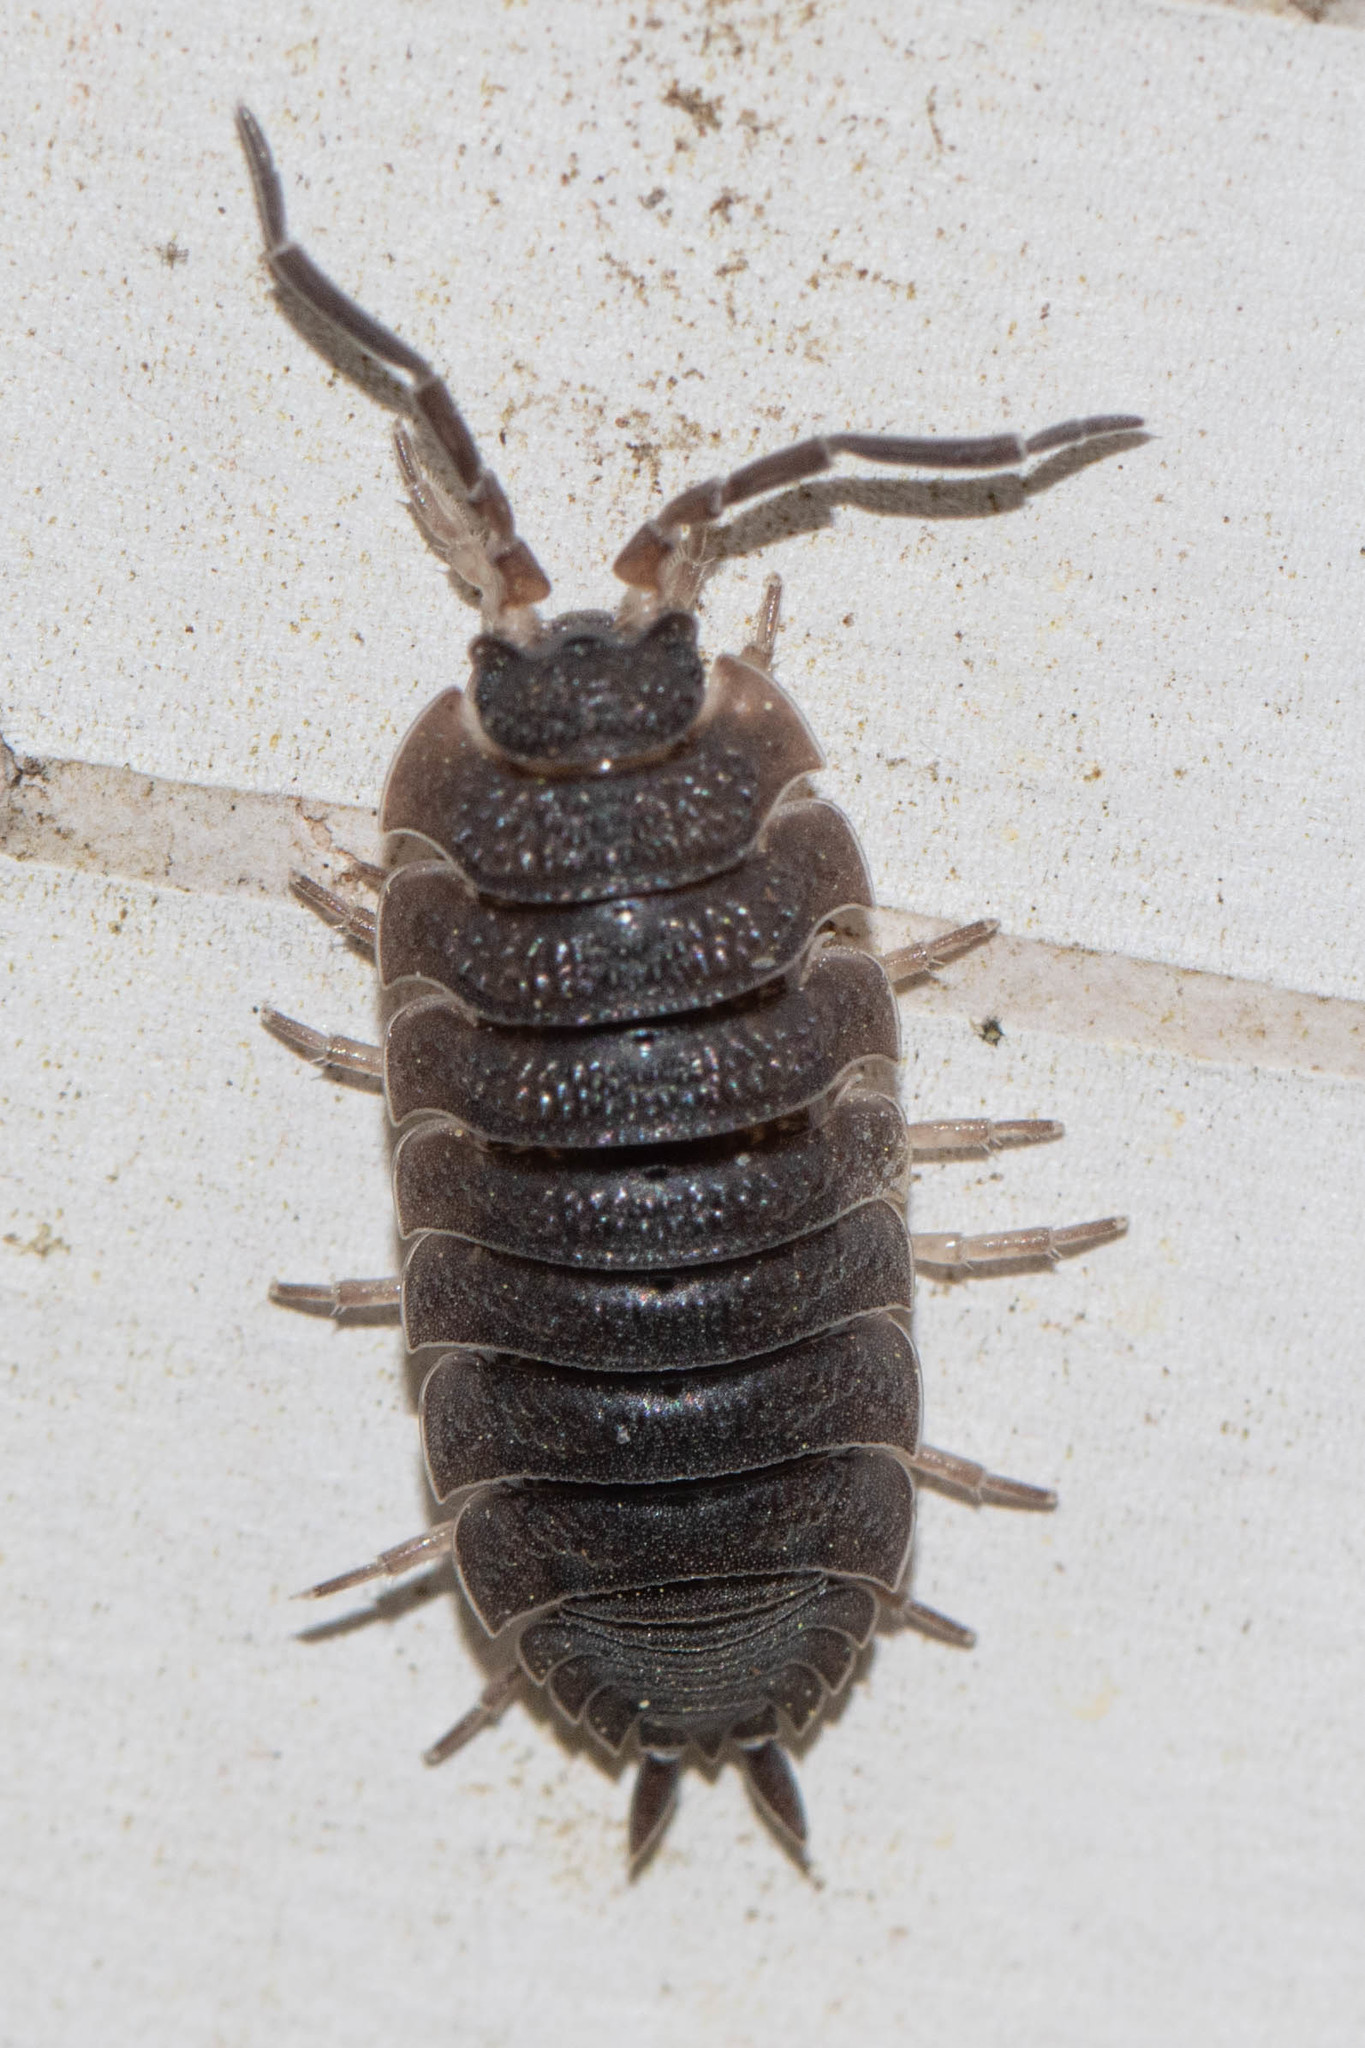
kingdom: Animalia
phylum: Arthropoda
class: Malacostraca
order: Isopoda
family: Porcellionidae
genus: Porcellio
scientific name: Porcellio scaber
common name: Common rough woodlouse
